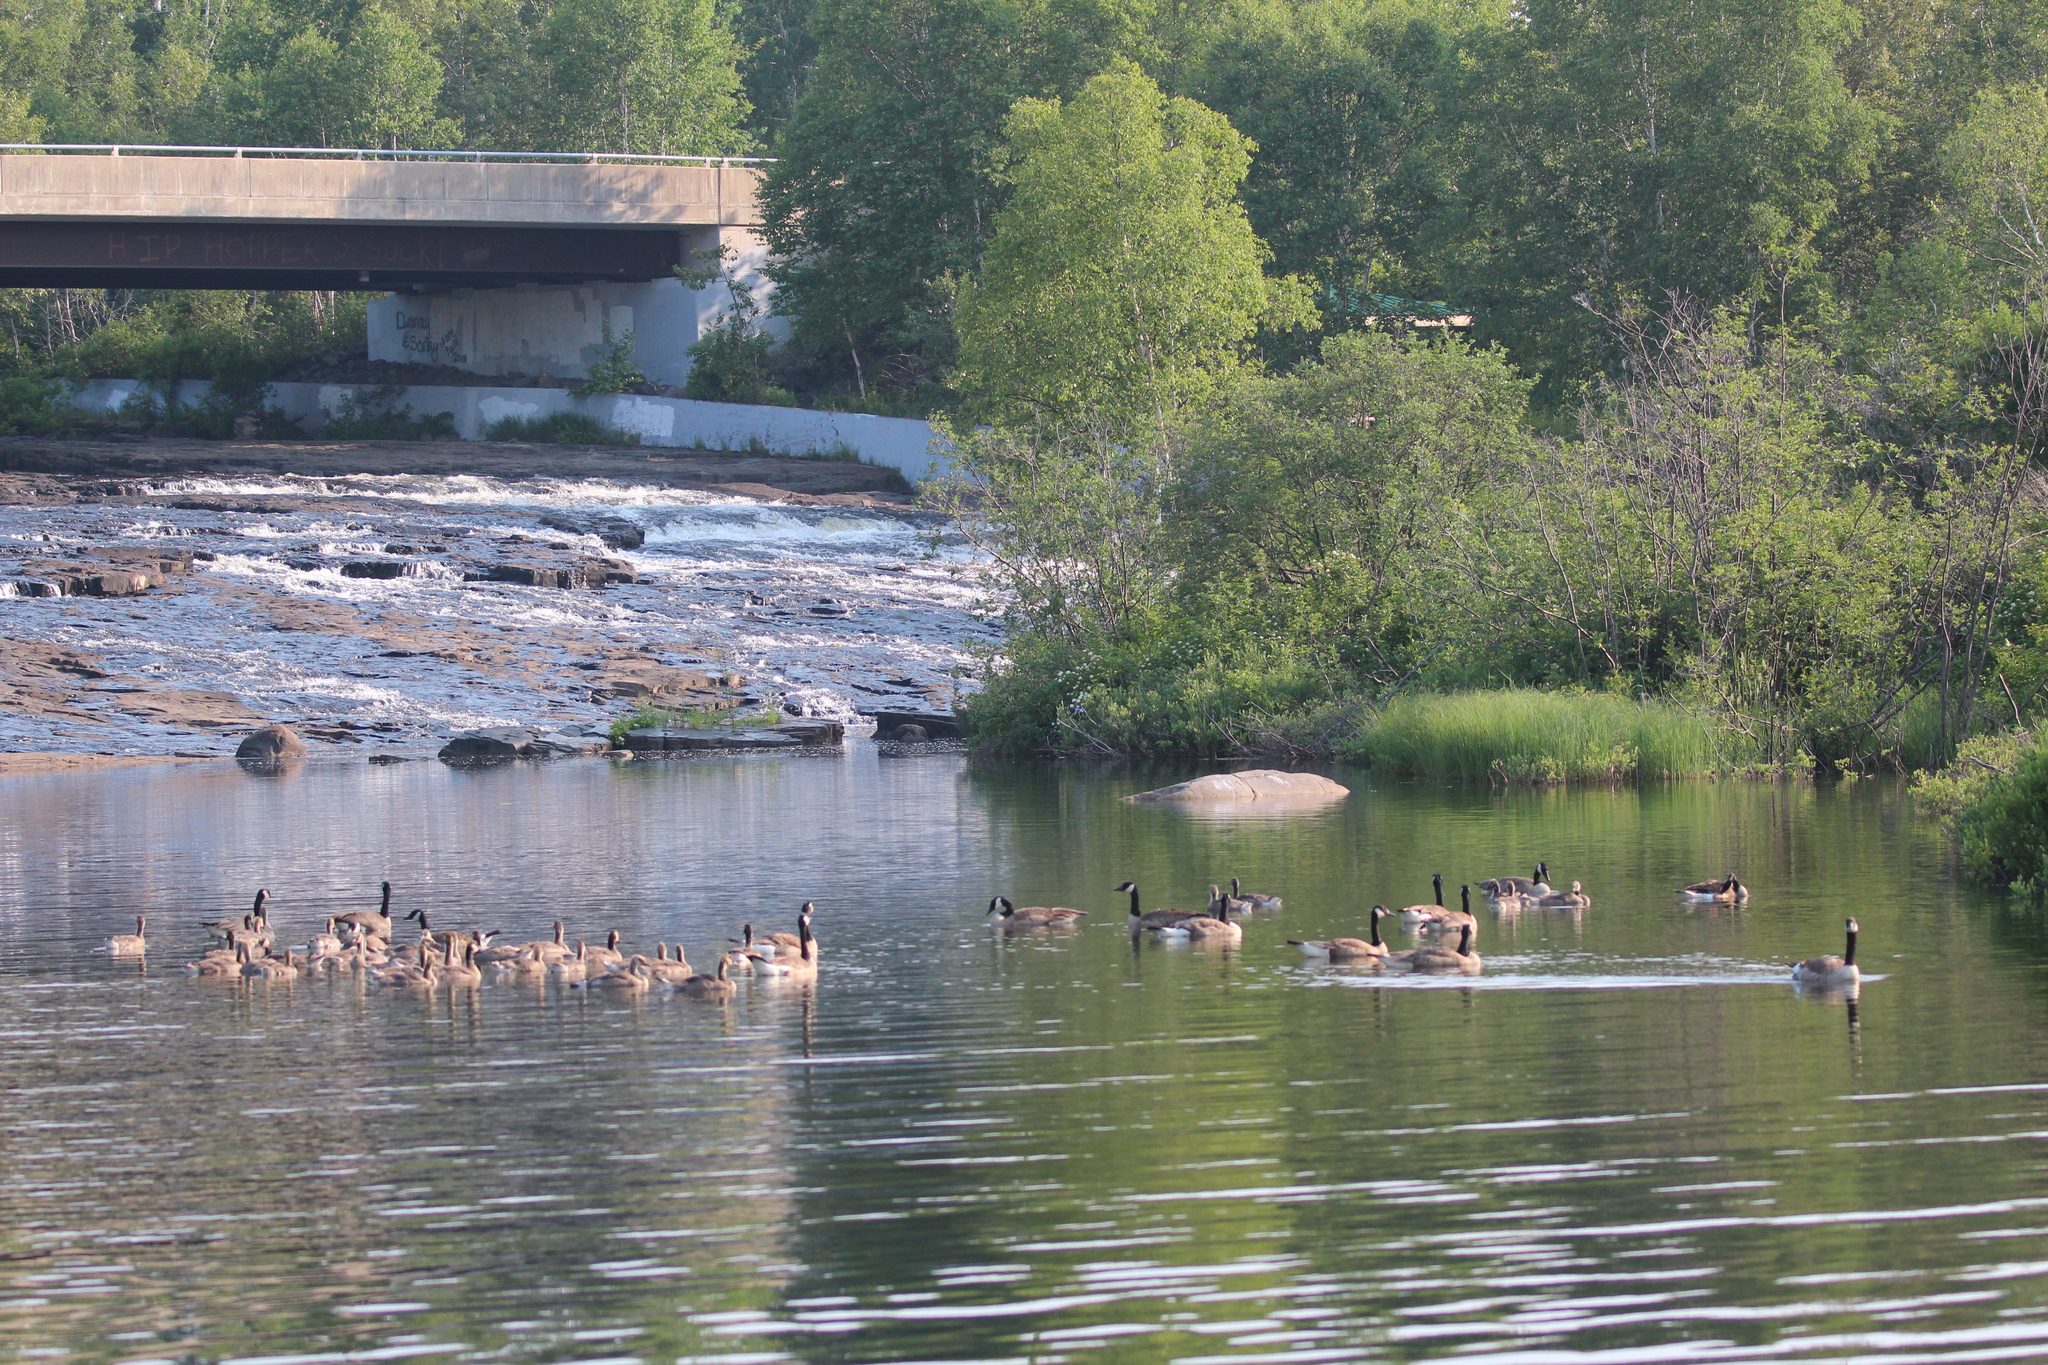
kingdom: Animalia
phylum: Chordata
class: Aves
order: Anseriformes
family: Anatidae
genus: Branta
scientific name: Branta canadensis
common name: Canada goose
